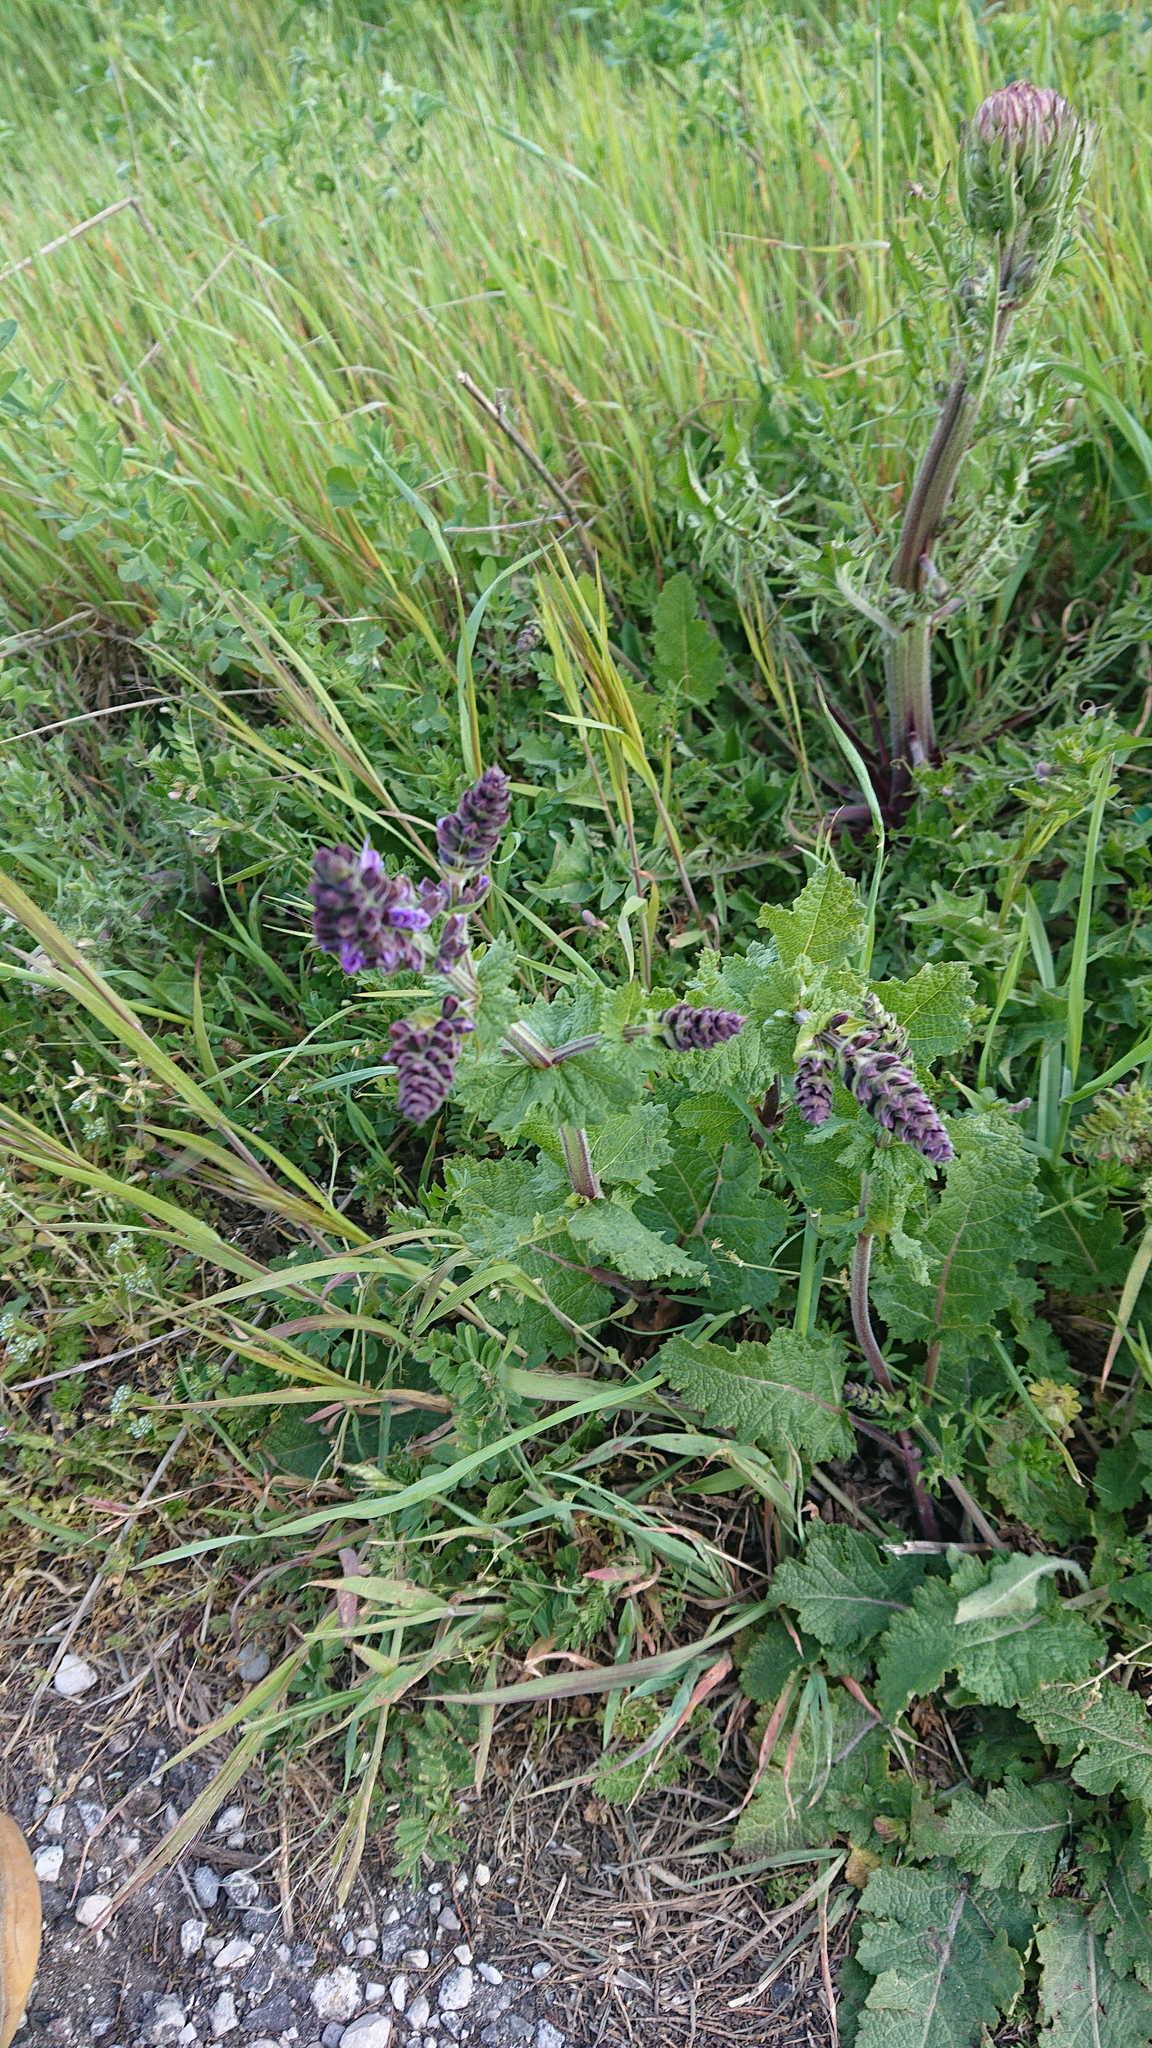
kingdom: Plantae
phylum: Tracheophyta
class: Magnoliopsida
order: Lamiales
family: Lamiaceae
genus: Salvia
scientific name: Salvia verbenaca
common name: Wild clary
